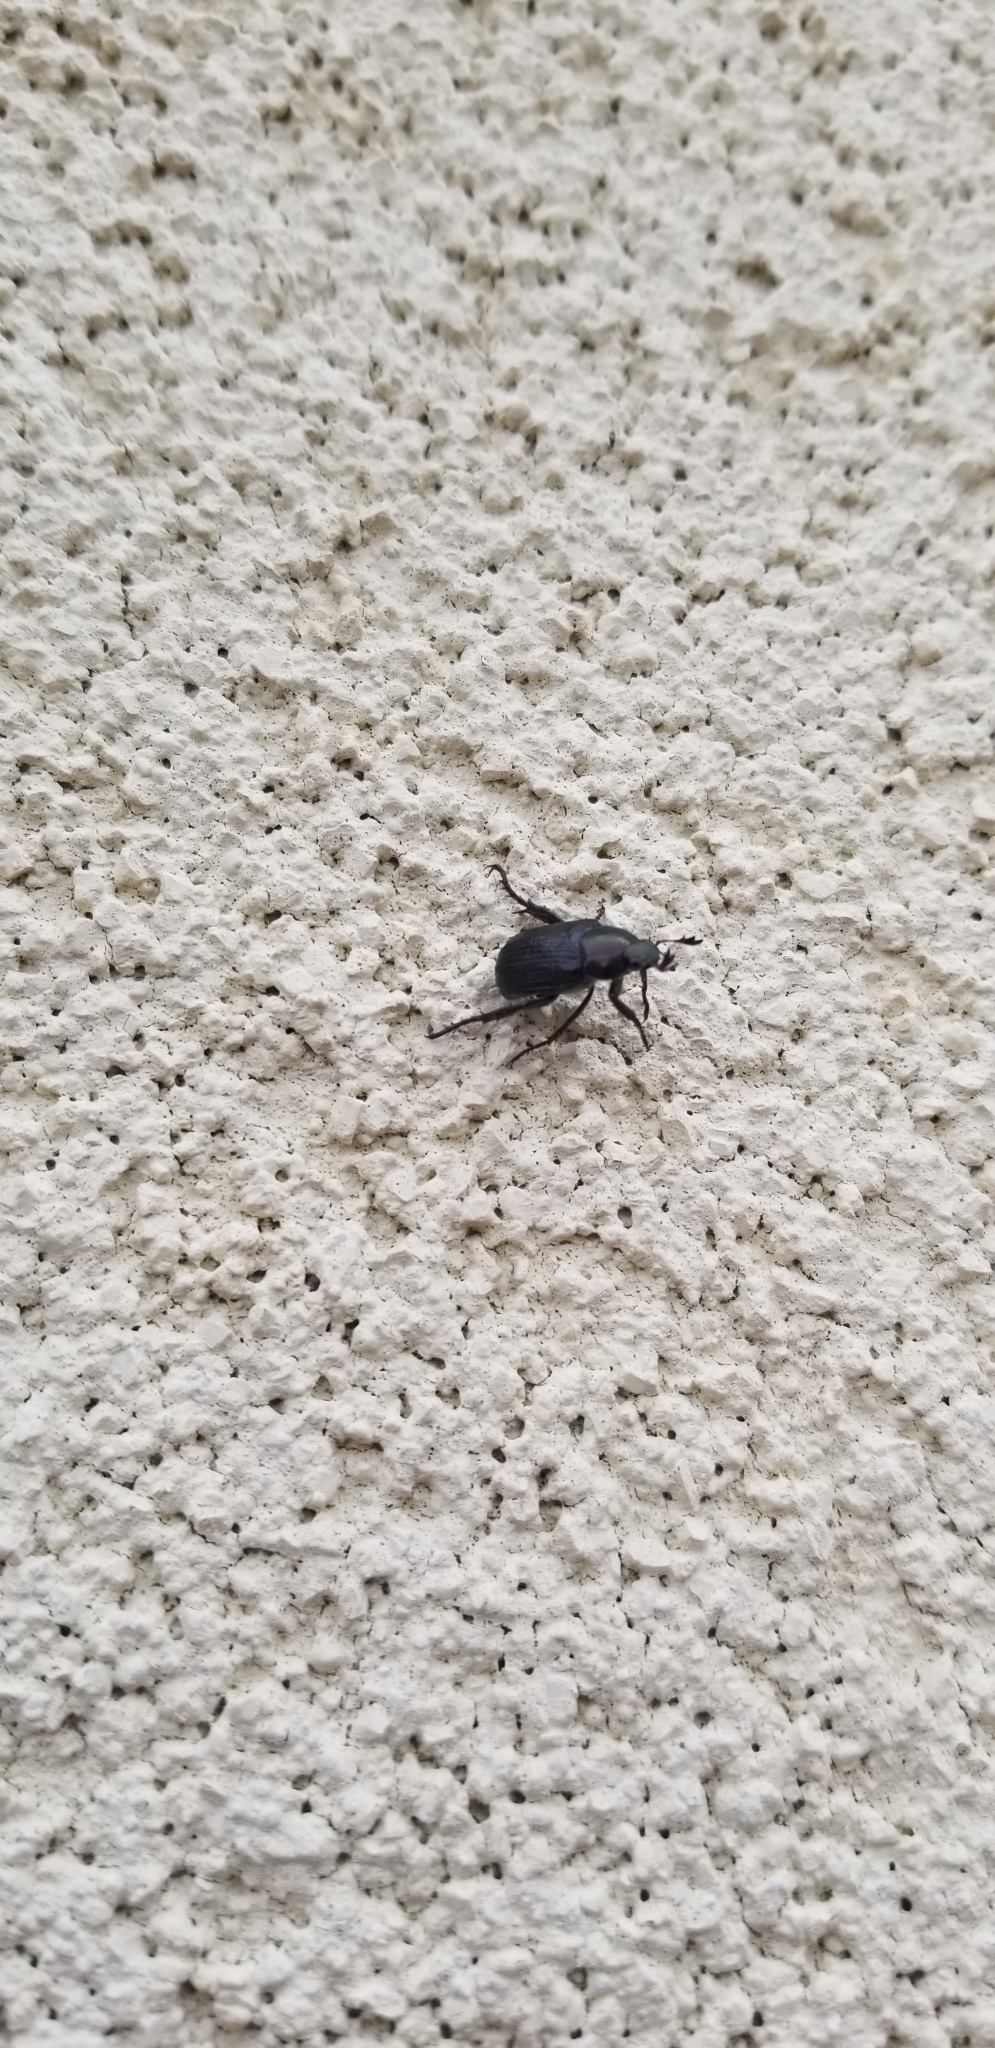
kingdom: Animalia
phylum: Arthropoda
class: Insecta
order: Coleoptera
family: Scarabaeidae
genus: Exomala
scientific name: Exomala orientalis
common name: Oriental beetle
